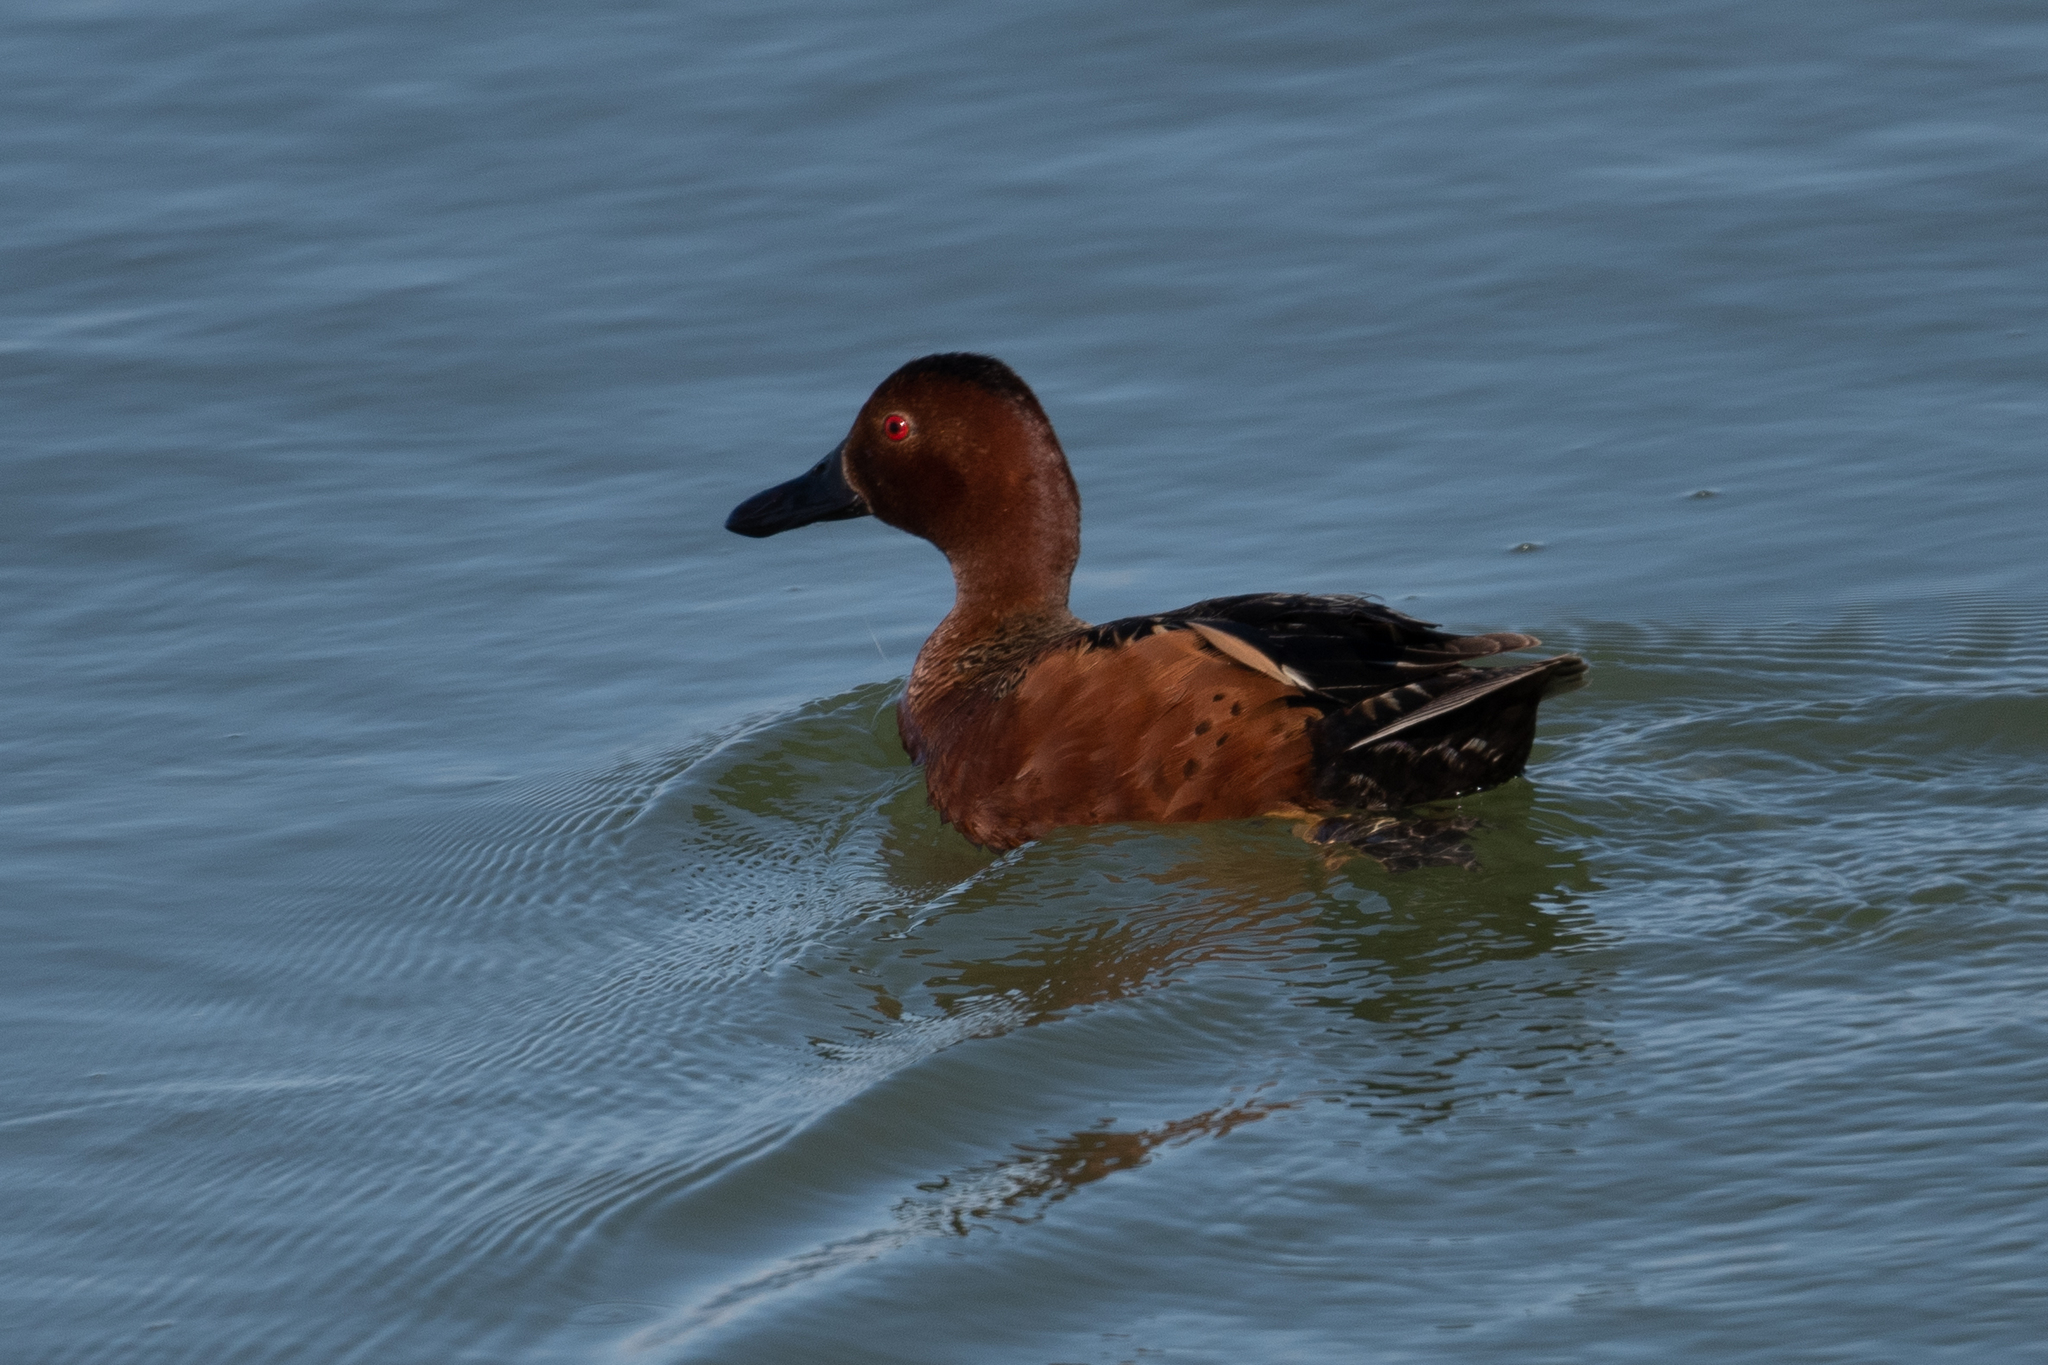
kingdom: Animalia
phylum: Chordata
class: Aves
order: Anseriformes
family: Anatidae
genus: Spatula
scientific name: Spatula cyanoptera
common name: Cinnamon teal
